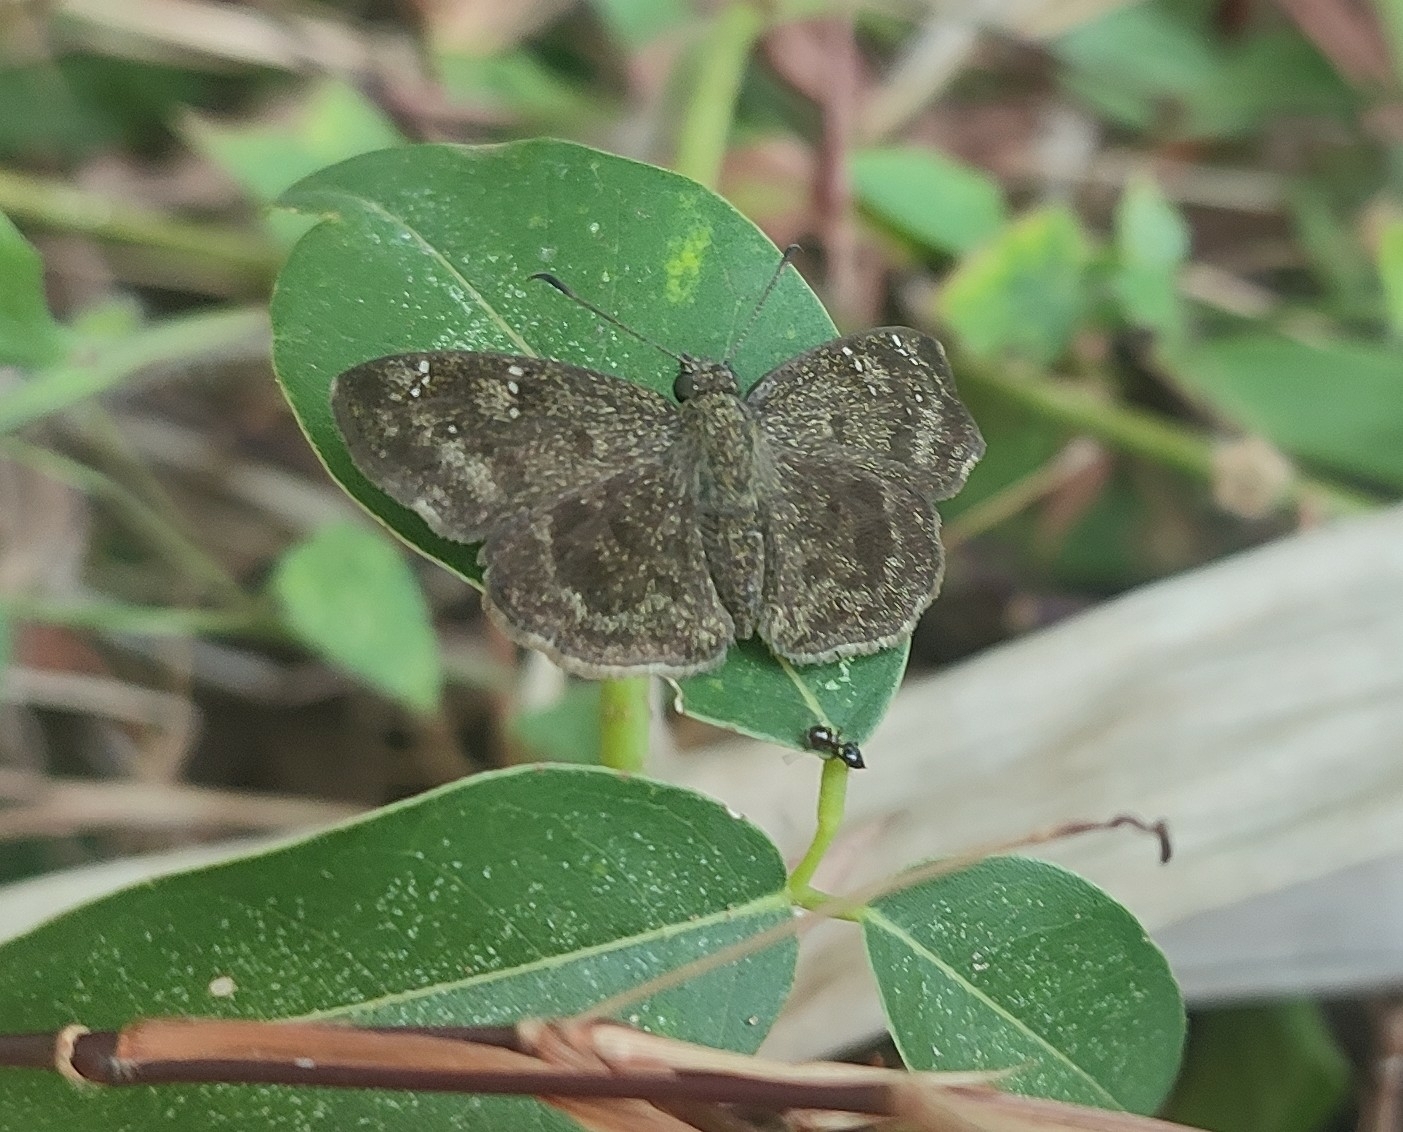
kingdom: Animalia
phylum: Arthropoda
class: Insecta
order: Lepidoptera
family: Hesperiidae
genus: Sarangesa
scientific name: Sarangesa dasahara
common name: Common small flat
